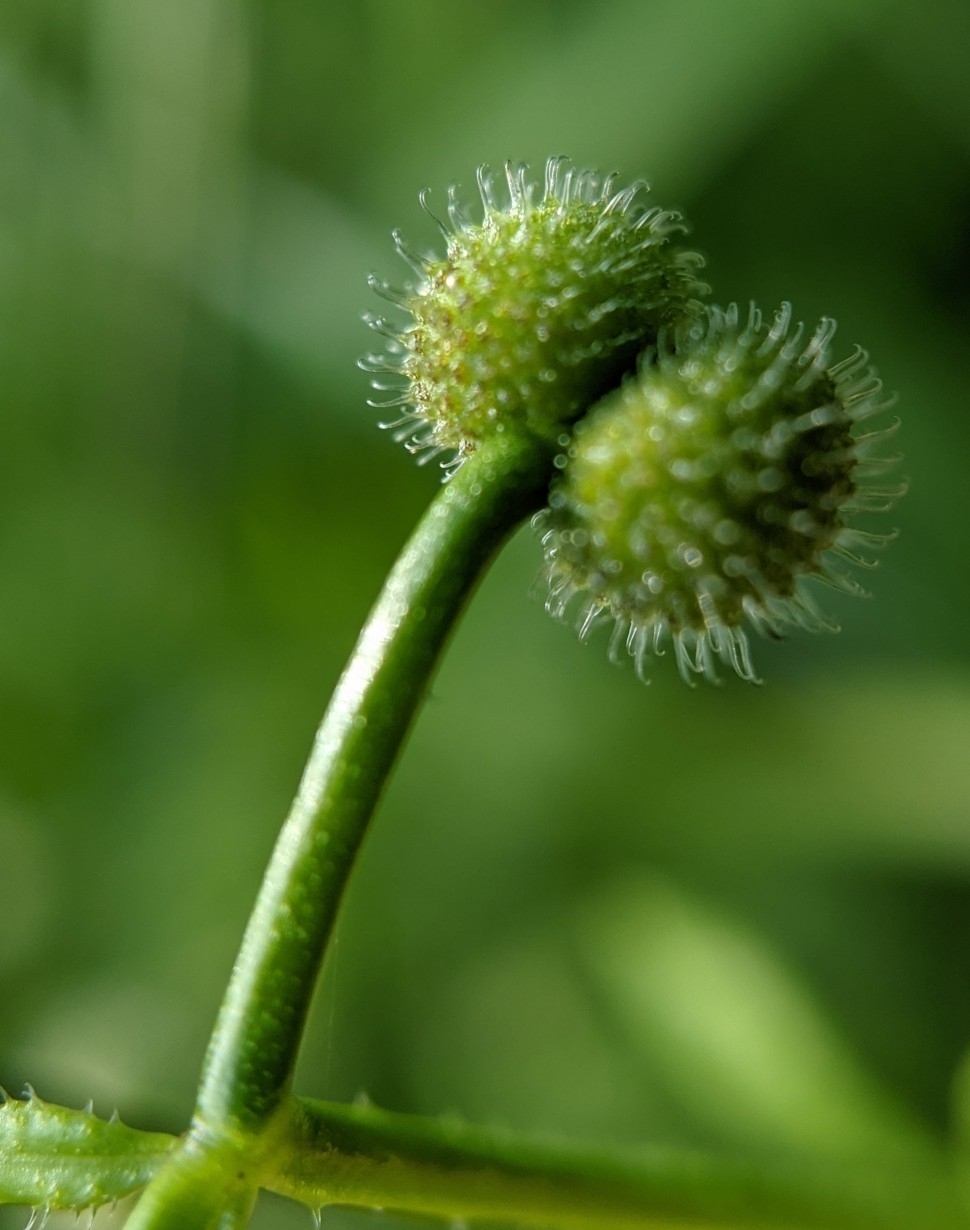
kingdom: Plantae
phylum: Tracheophyta
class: Magnoliopsida
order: Gentianales
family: Rubiaceae
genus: Galium
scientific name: Galium aparine
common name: Cleavers
